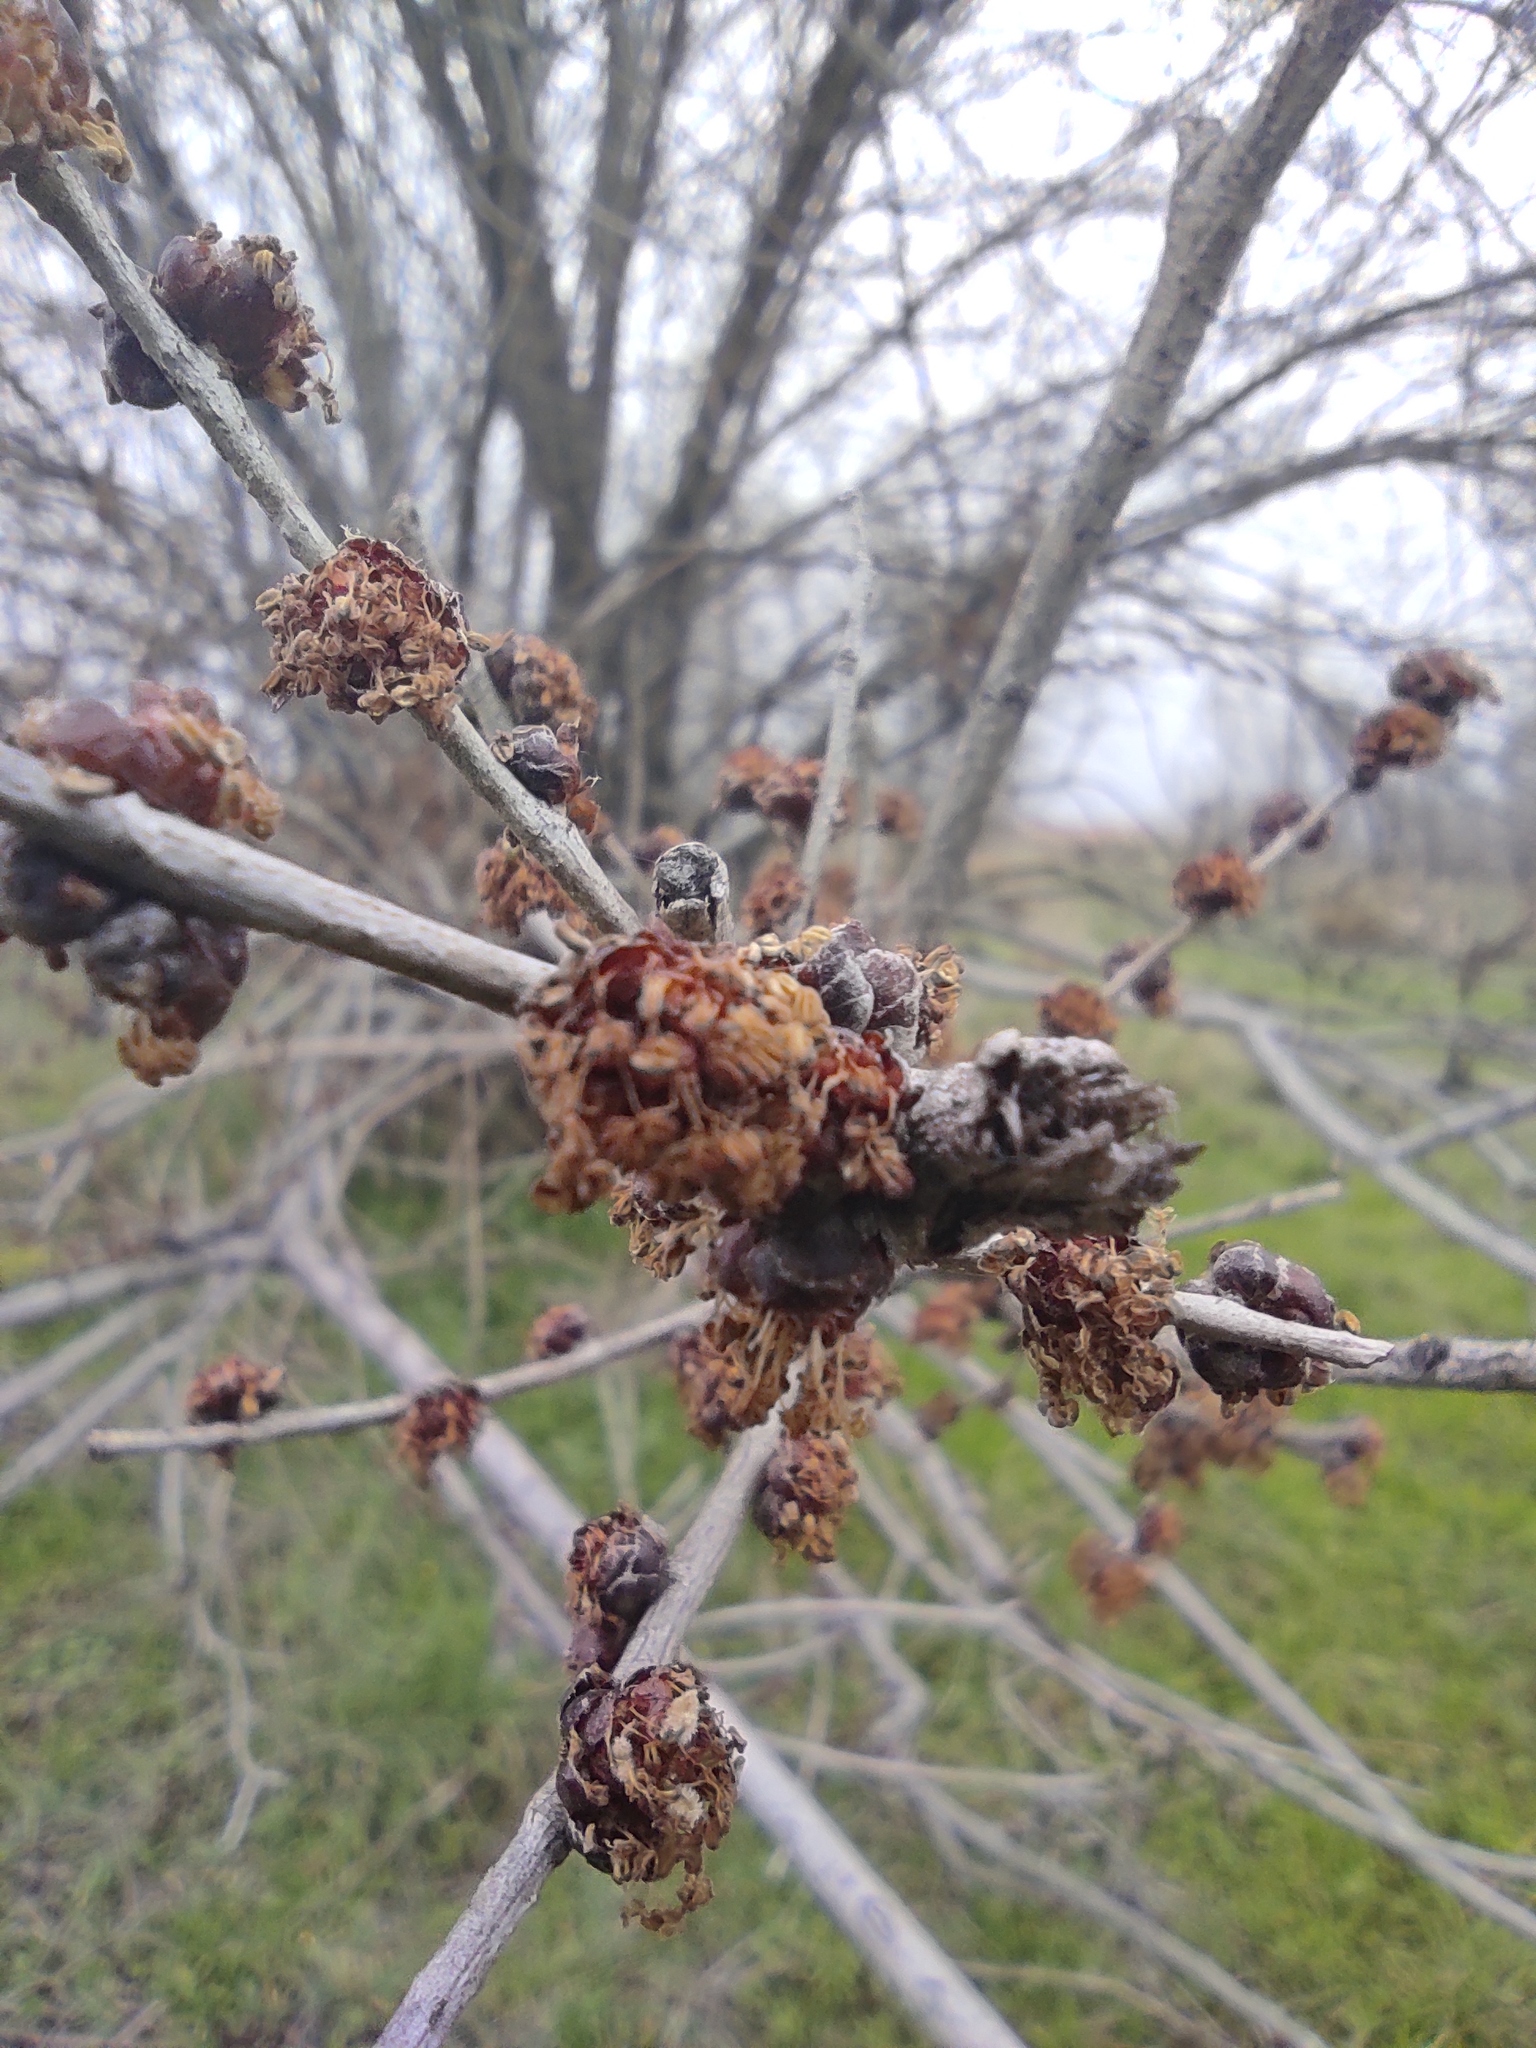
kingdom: Plantae
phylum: Tracheophyta
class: Magnoliopsida
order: Rosales
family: Ulmaceae
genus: Ulmus
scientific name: Ulmus pumila
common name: Siberian elm
